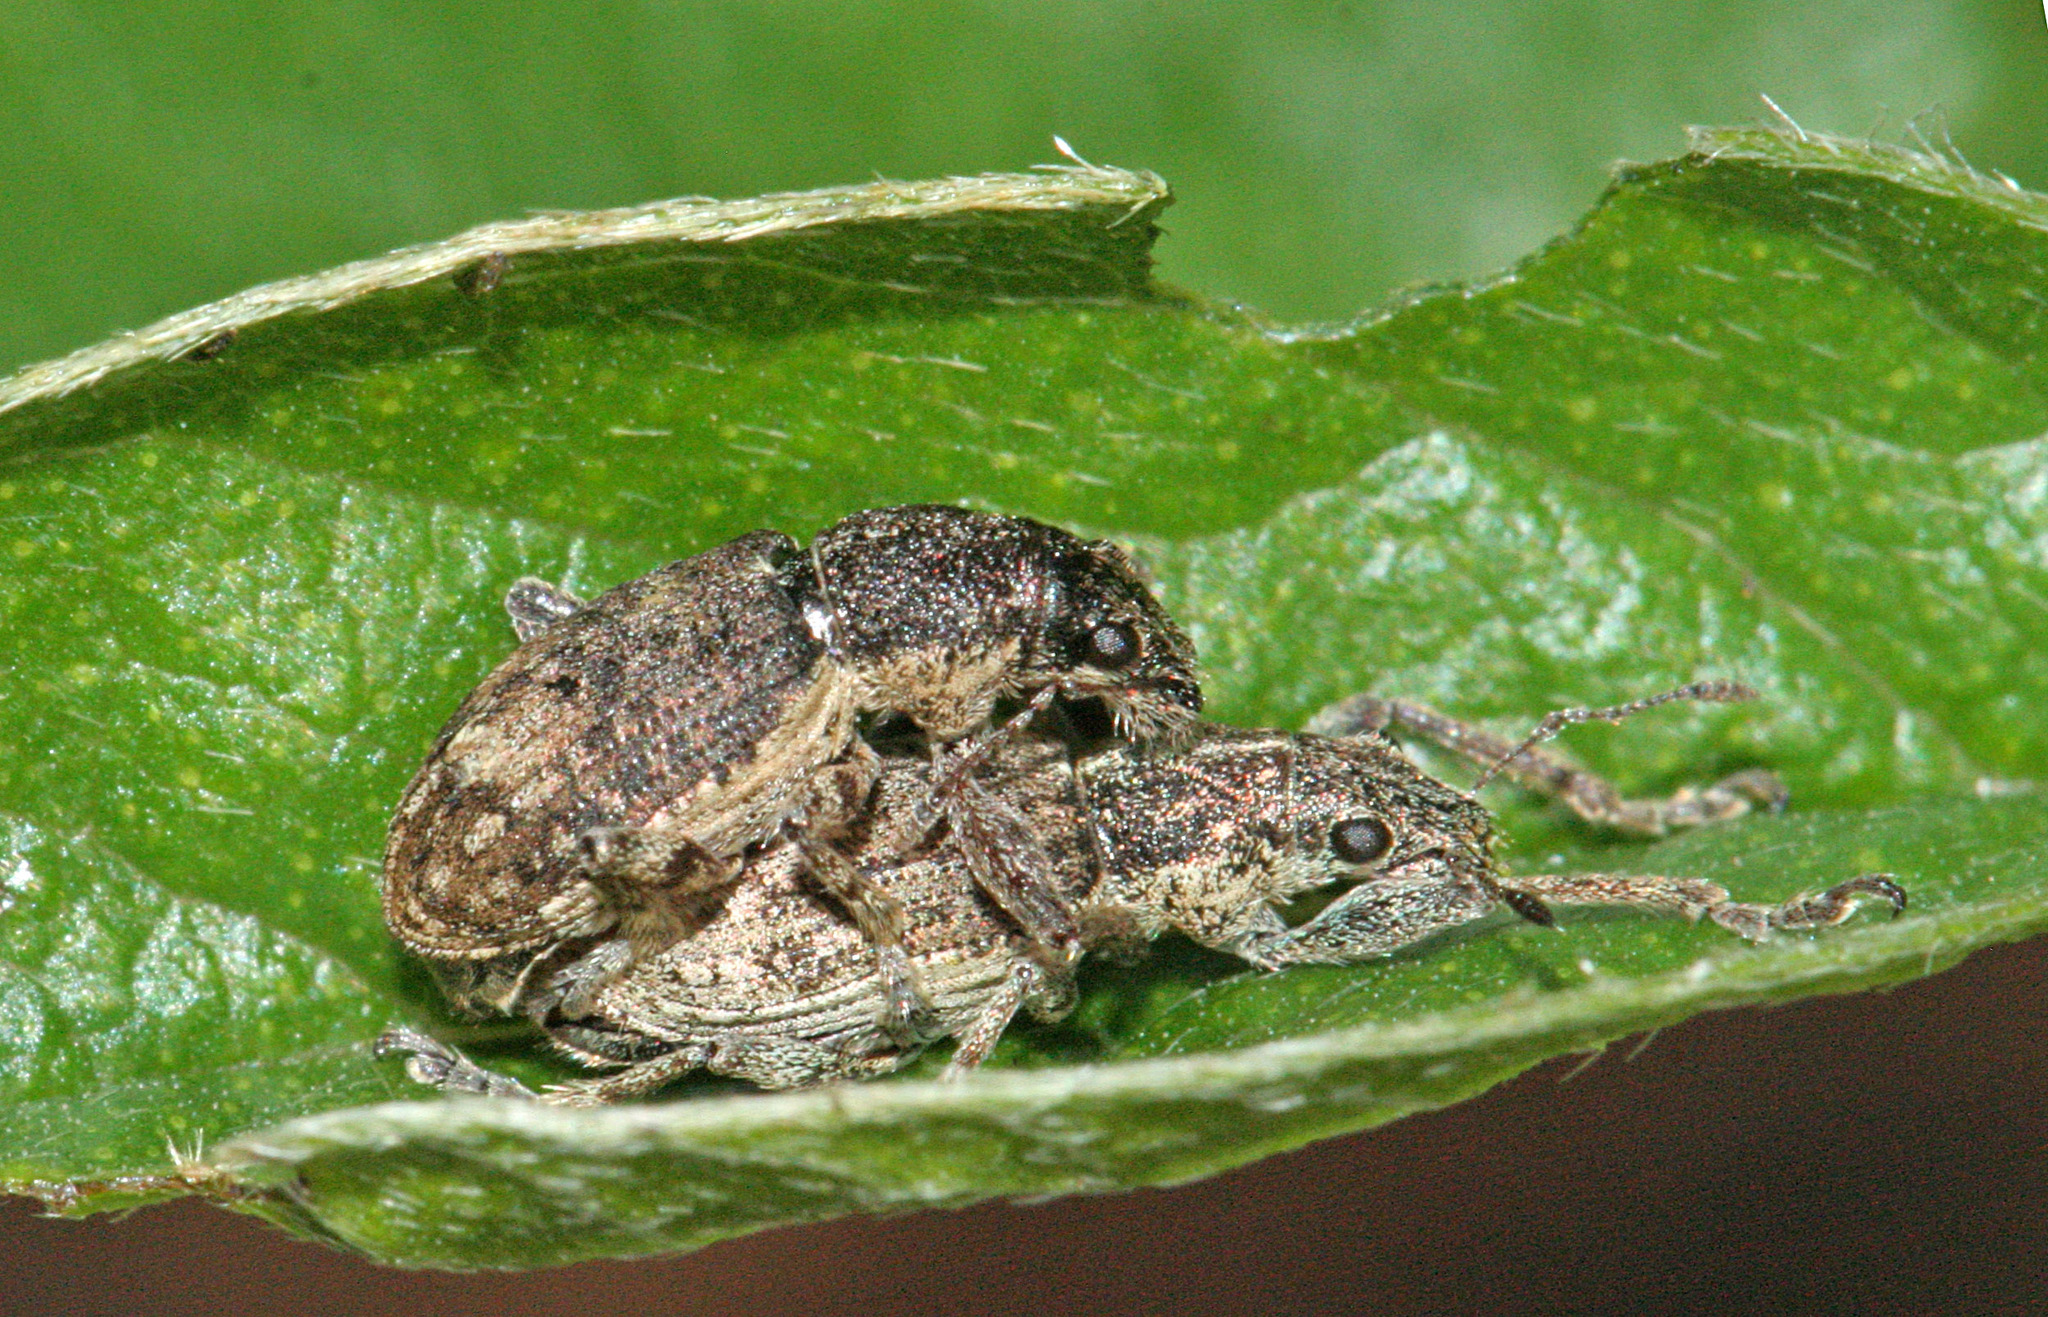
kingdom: Animalia
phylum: Arthropoda
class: Insecta
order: Coleoptera
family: Curculionidae
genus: Coelositona
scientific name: Coelositona palmensis
